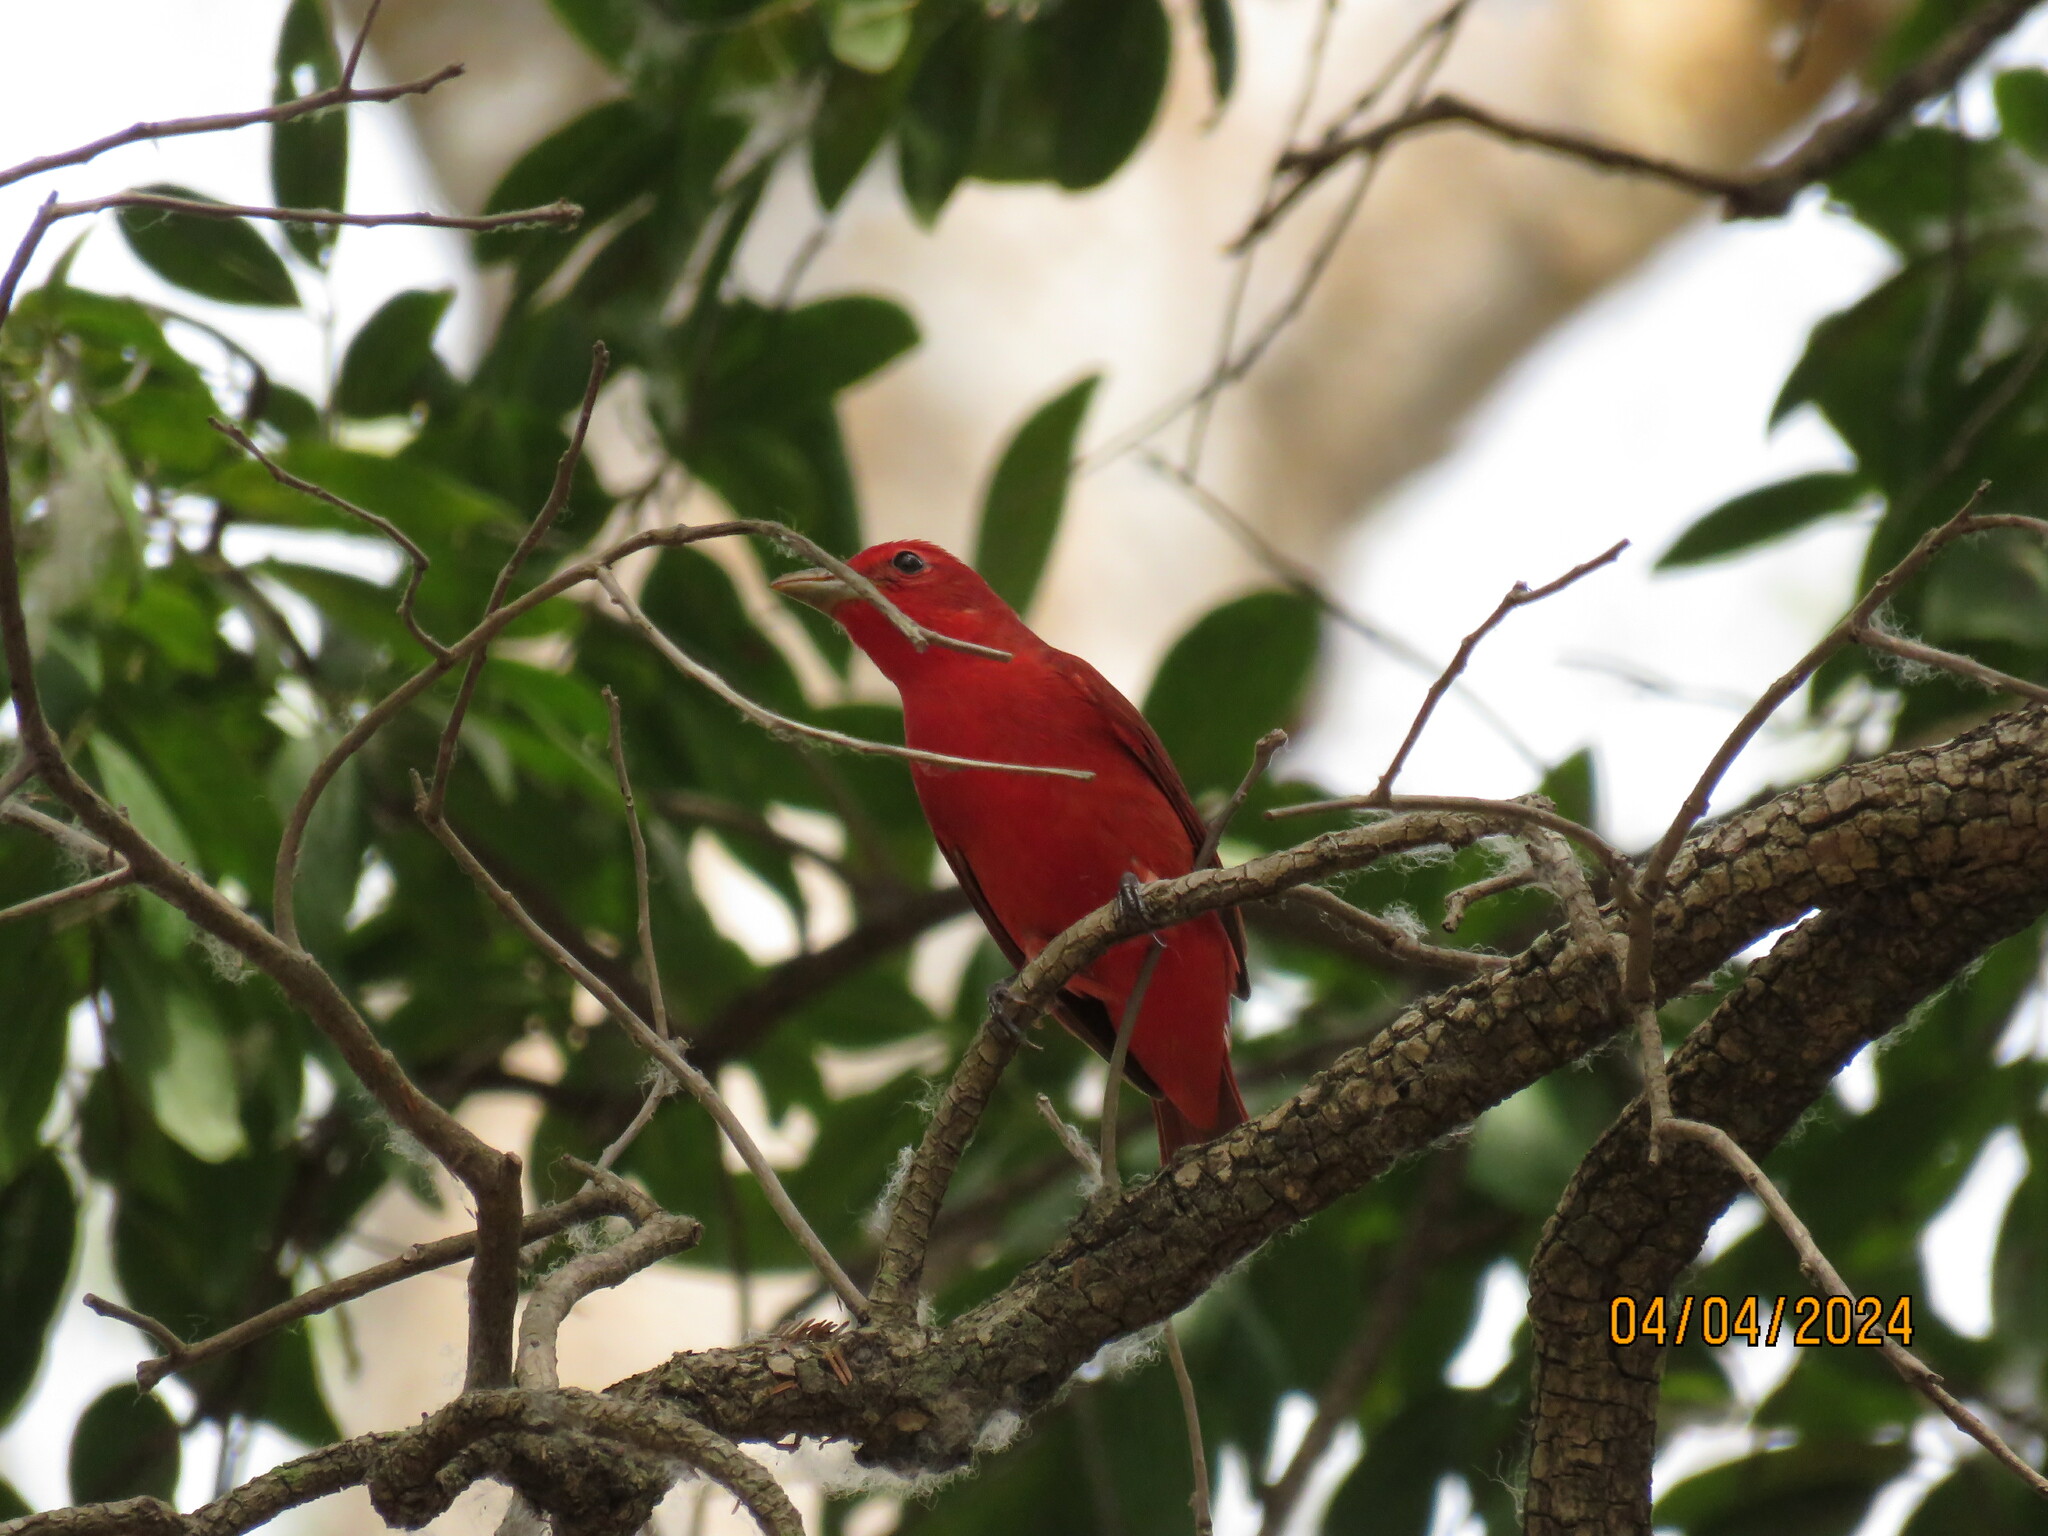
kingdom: Animalia
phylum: Chordata
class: Aves
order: Passeriformes
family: Cardinalidae
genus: Piranga
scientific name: Piranga rubra
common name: Summer tanager
